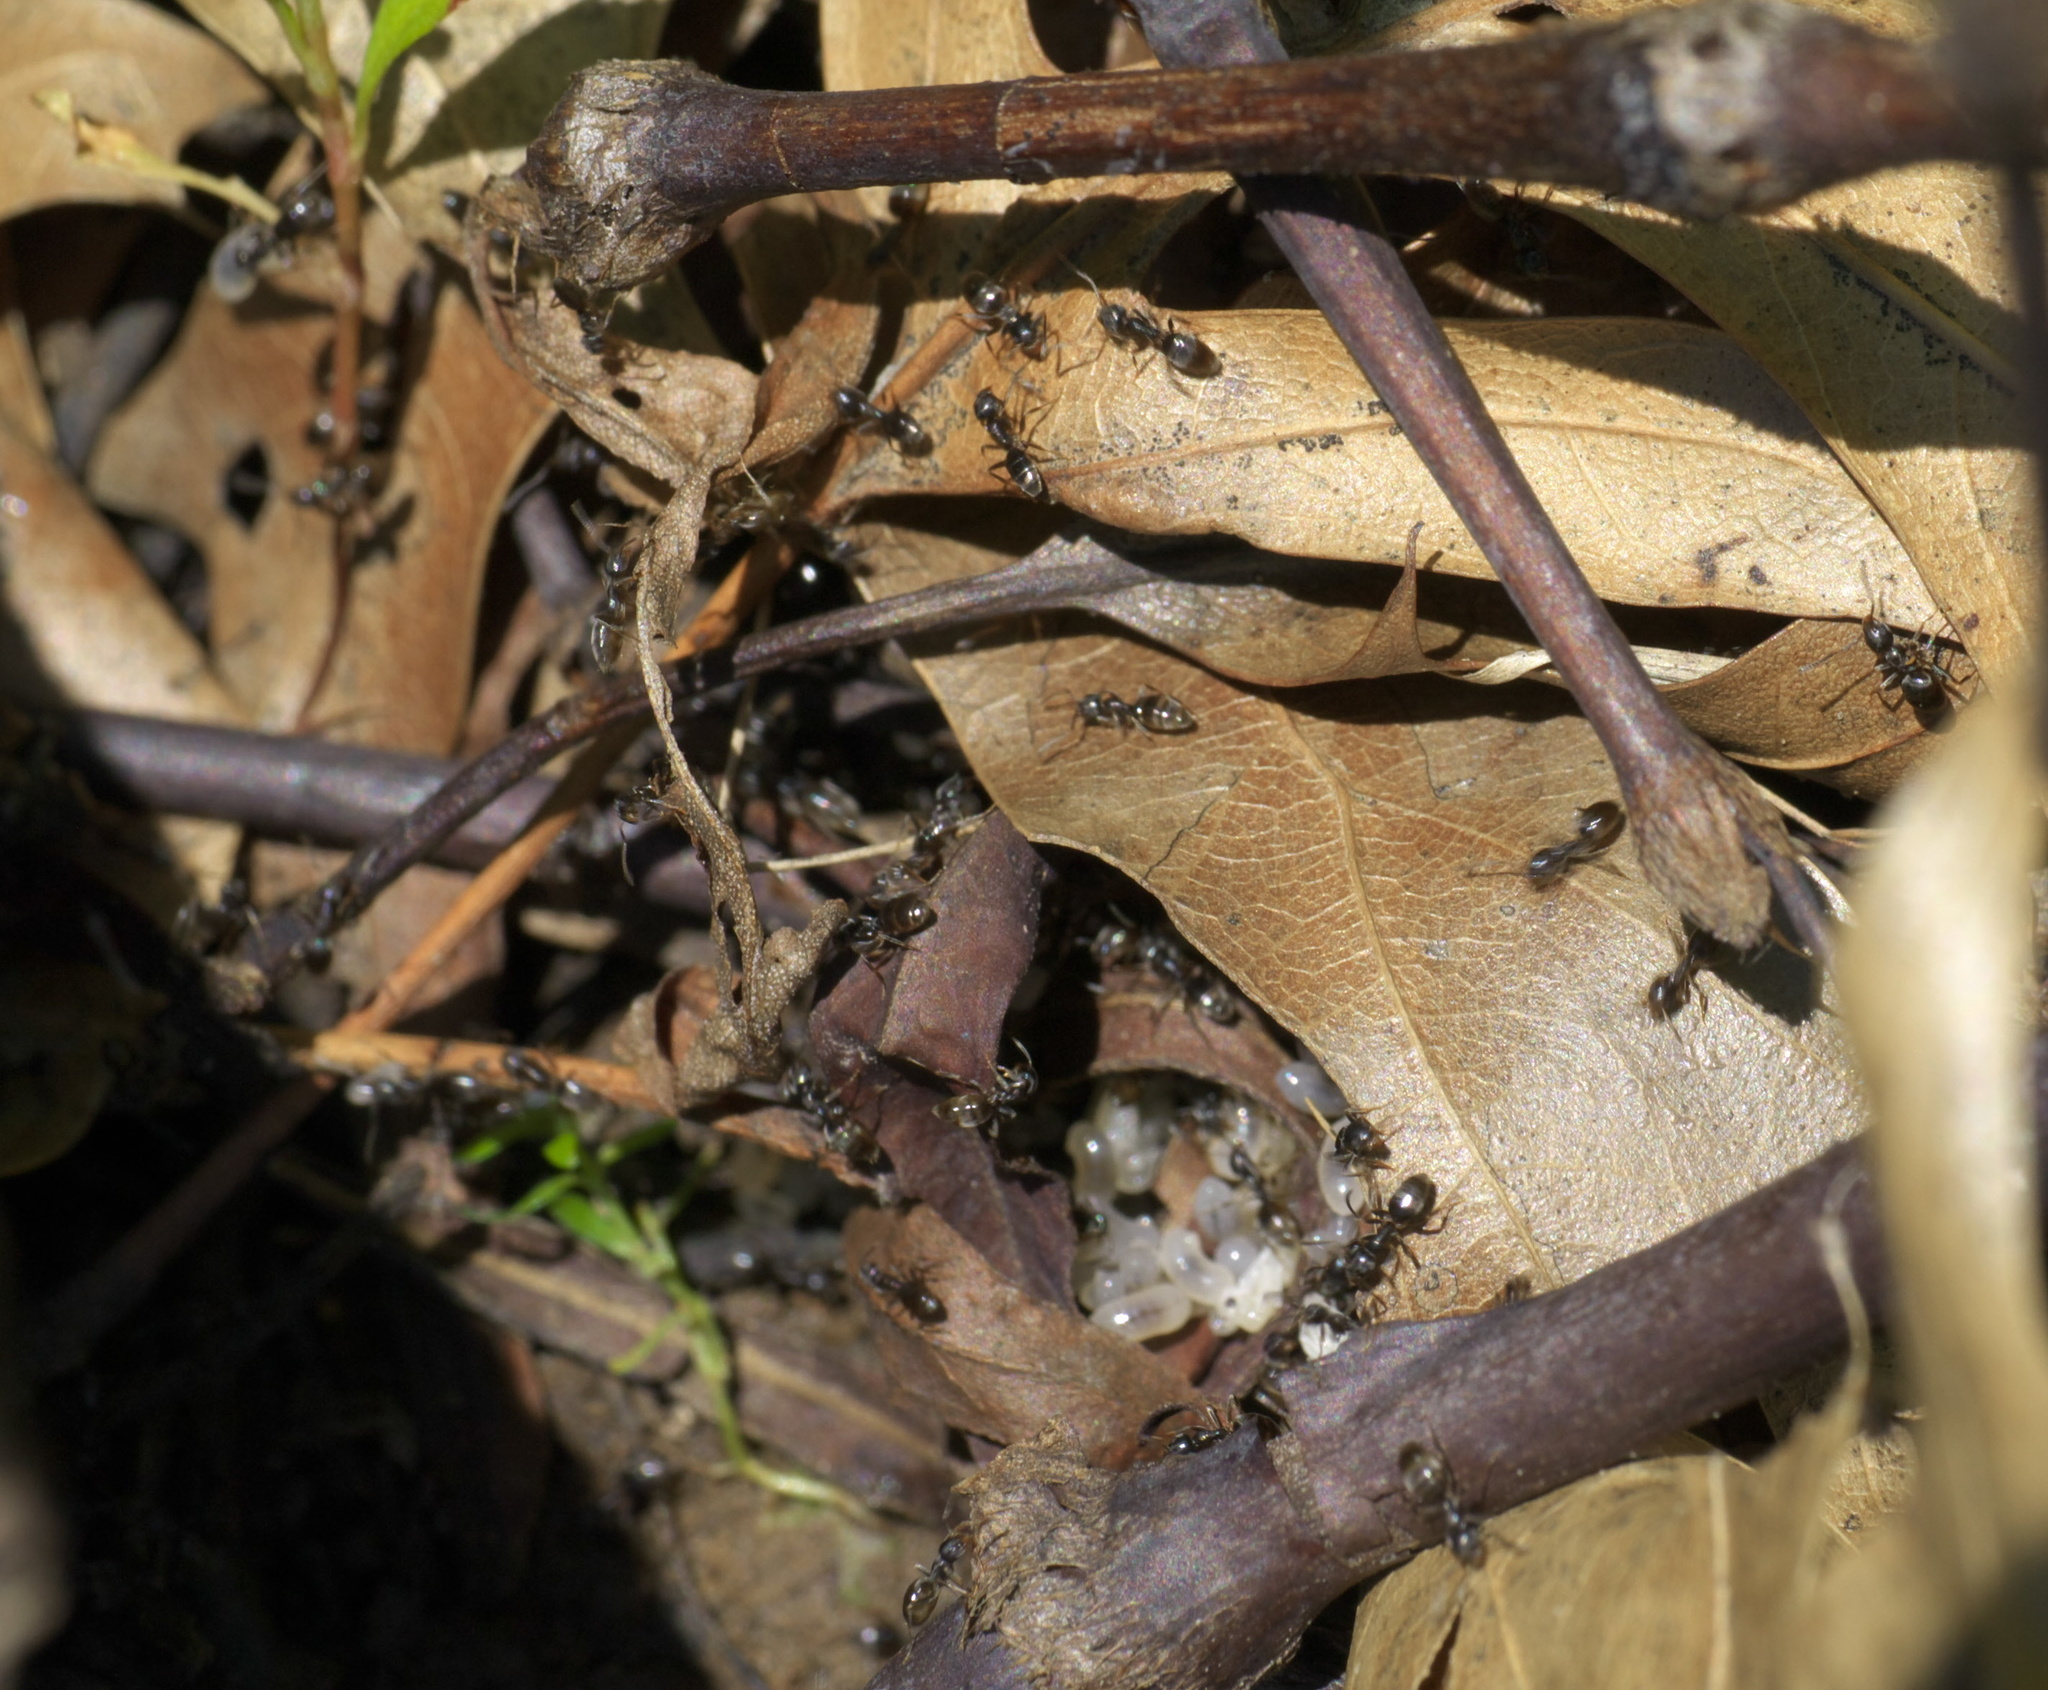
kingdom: Animalia
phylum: Arthropoda
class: Insecta
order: Hymenoptera
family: Formicidae
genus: Tapinoma
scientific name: Tapinoma sessile
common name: Odorous house ant
